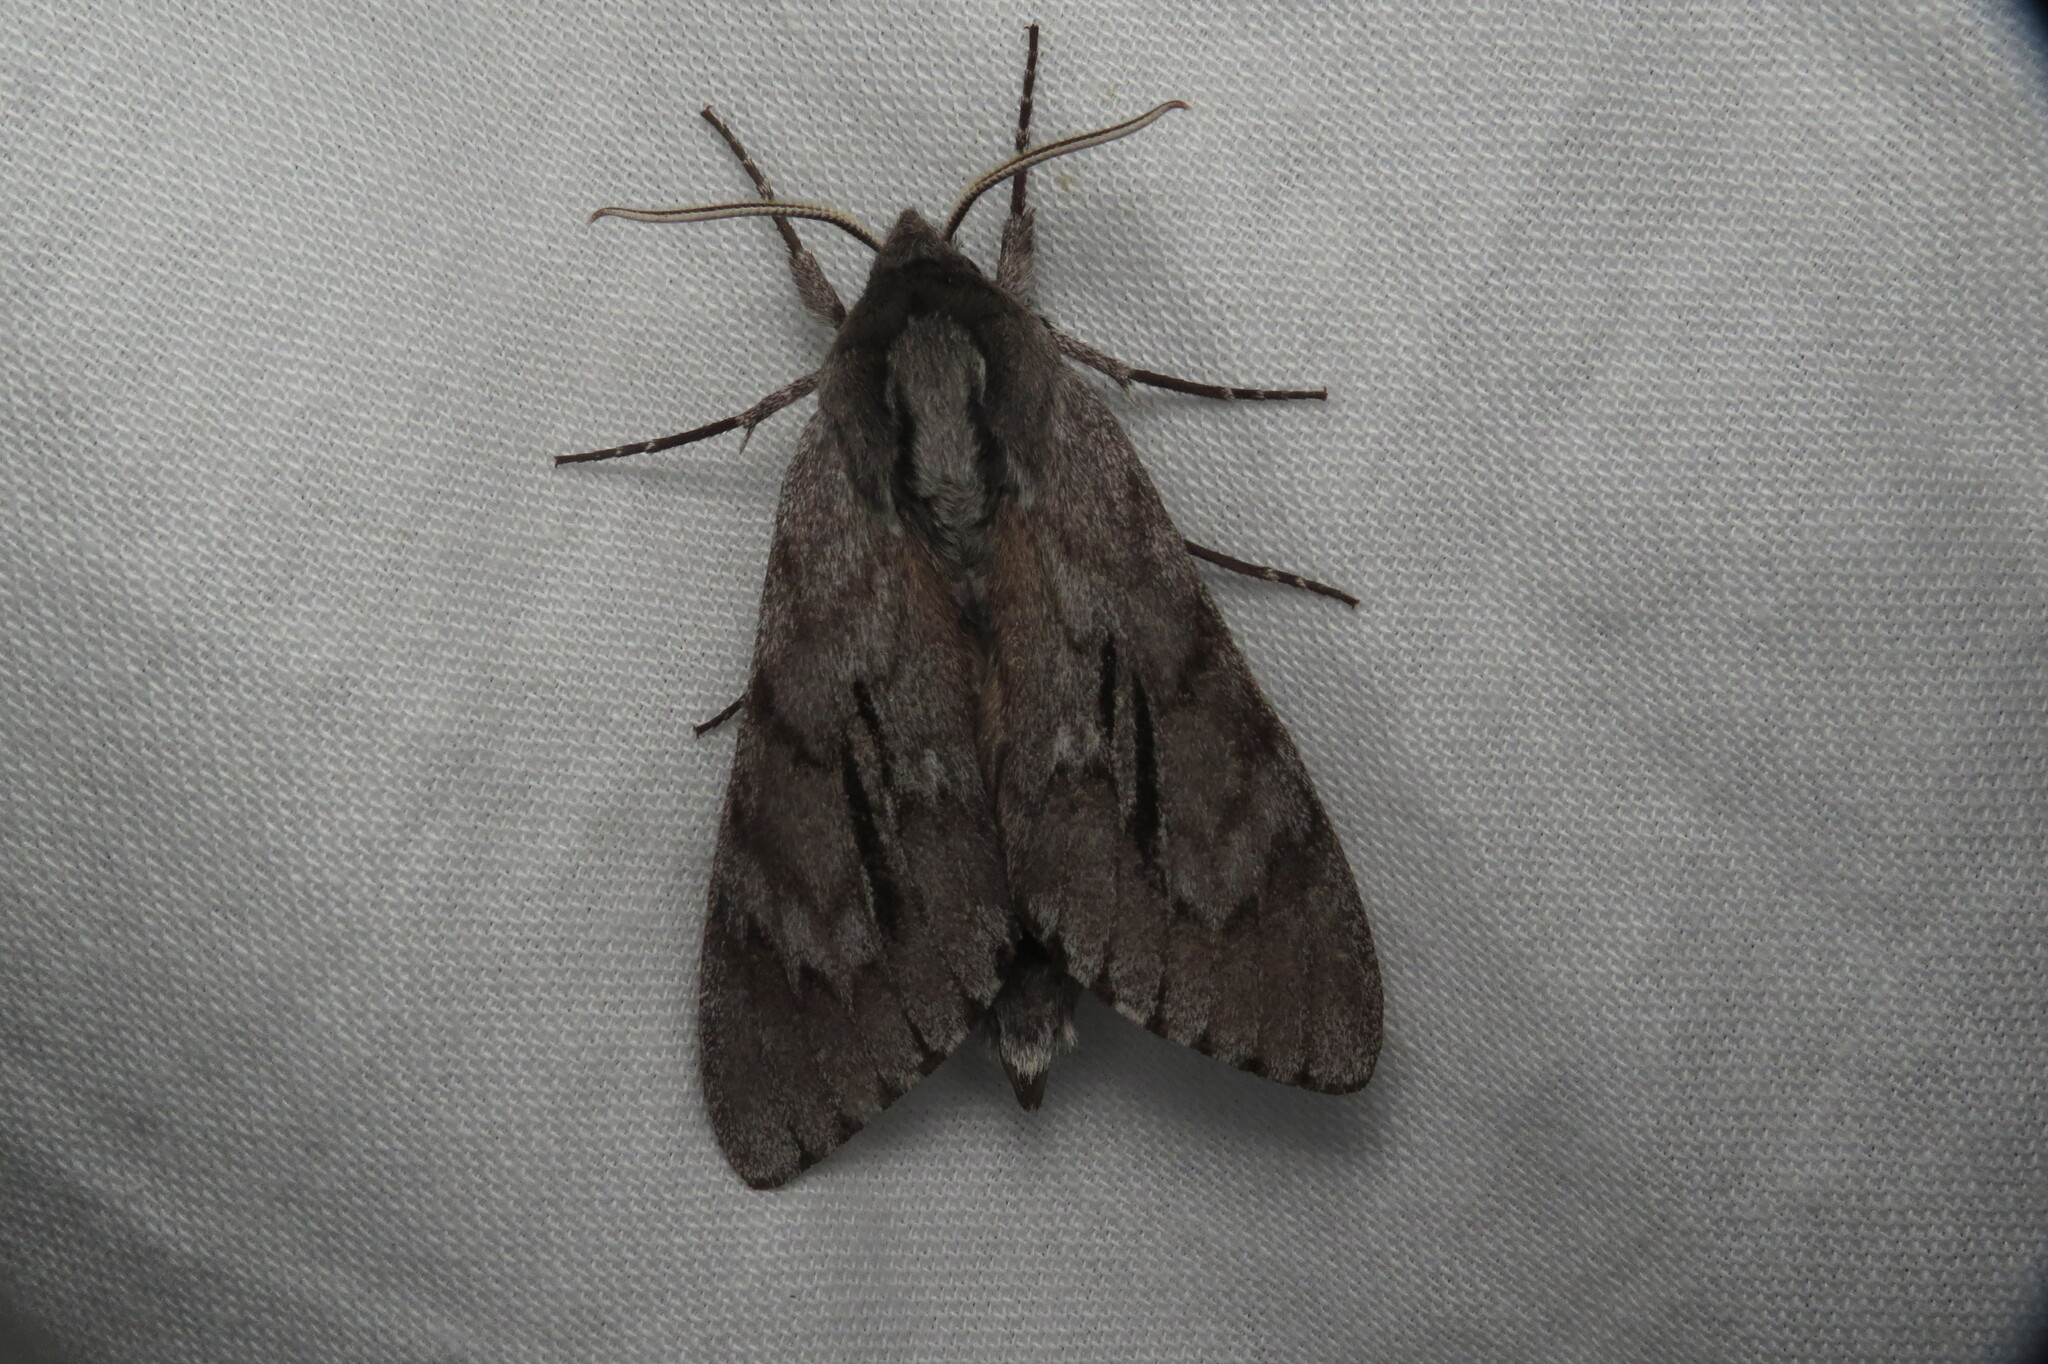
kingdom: Animalia
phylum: Arthropoda
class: Insecta
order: Lepidoptera
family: Sphingidae
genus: Lapara
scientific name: Lapara coniferarum
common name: Southern pine sphinx
